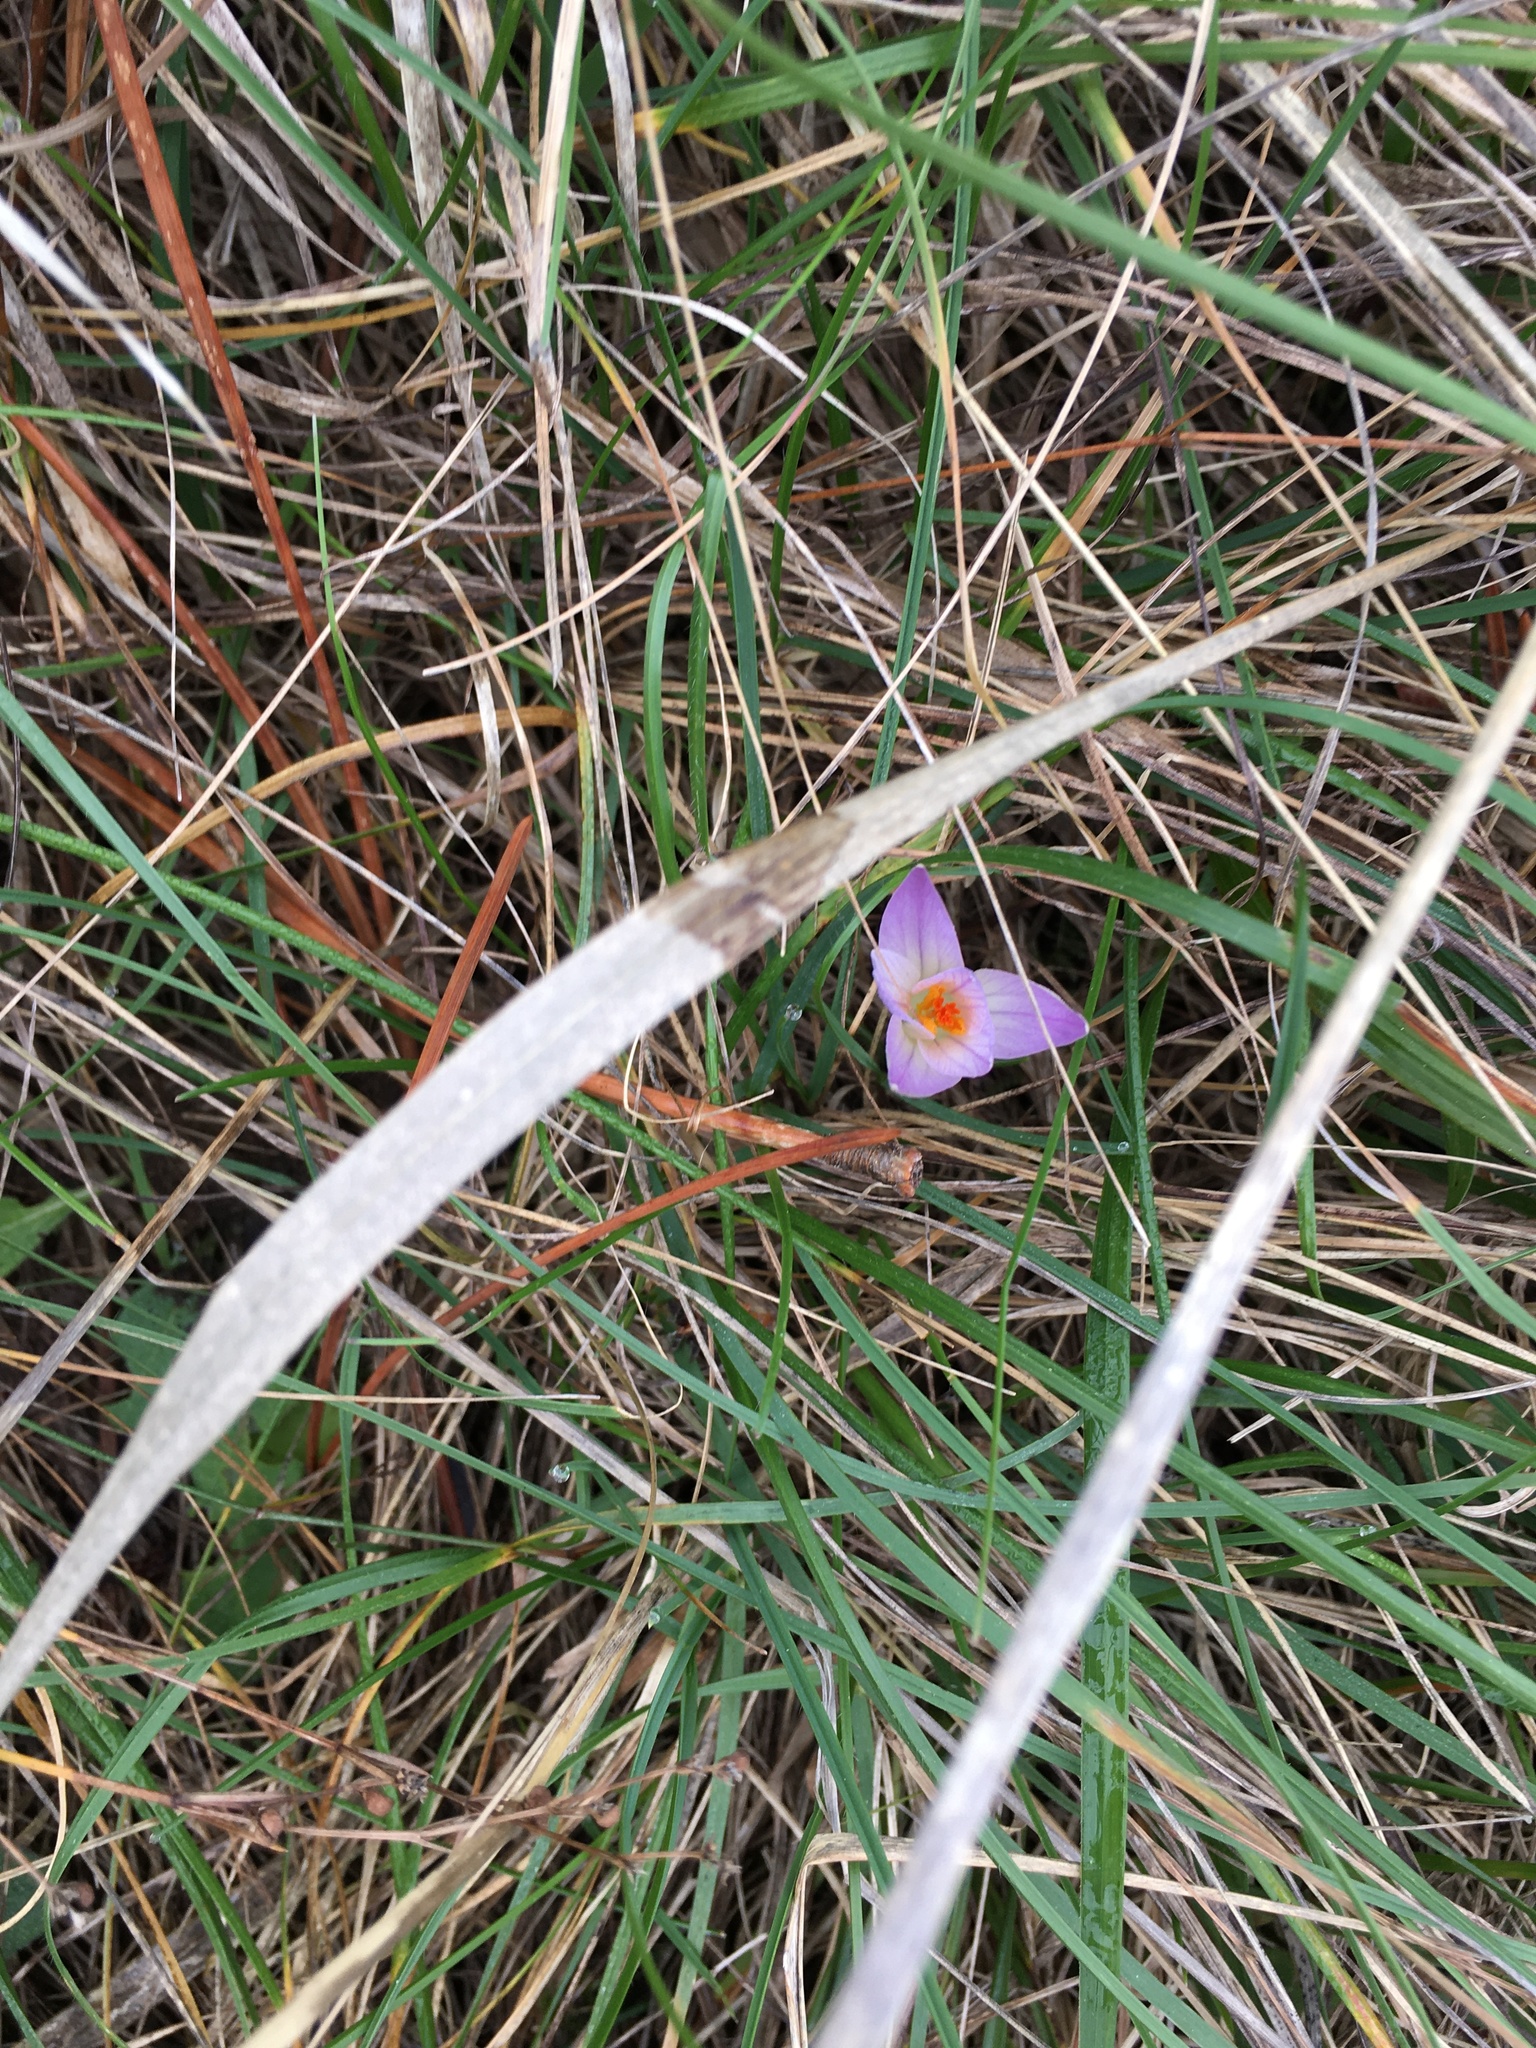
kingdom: Plantae
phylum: Tracheophyta
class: Liliopsida
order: Asparagales
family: Iridaceae
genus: Crocus
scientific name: Crocus versicolor
